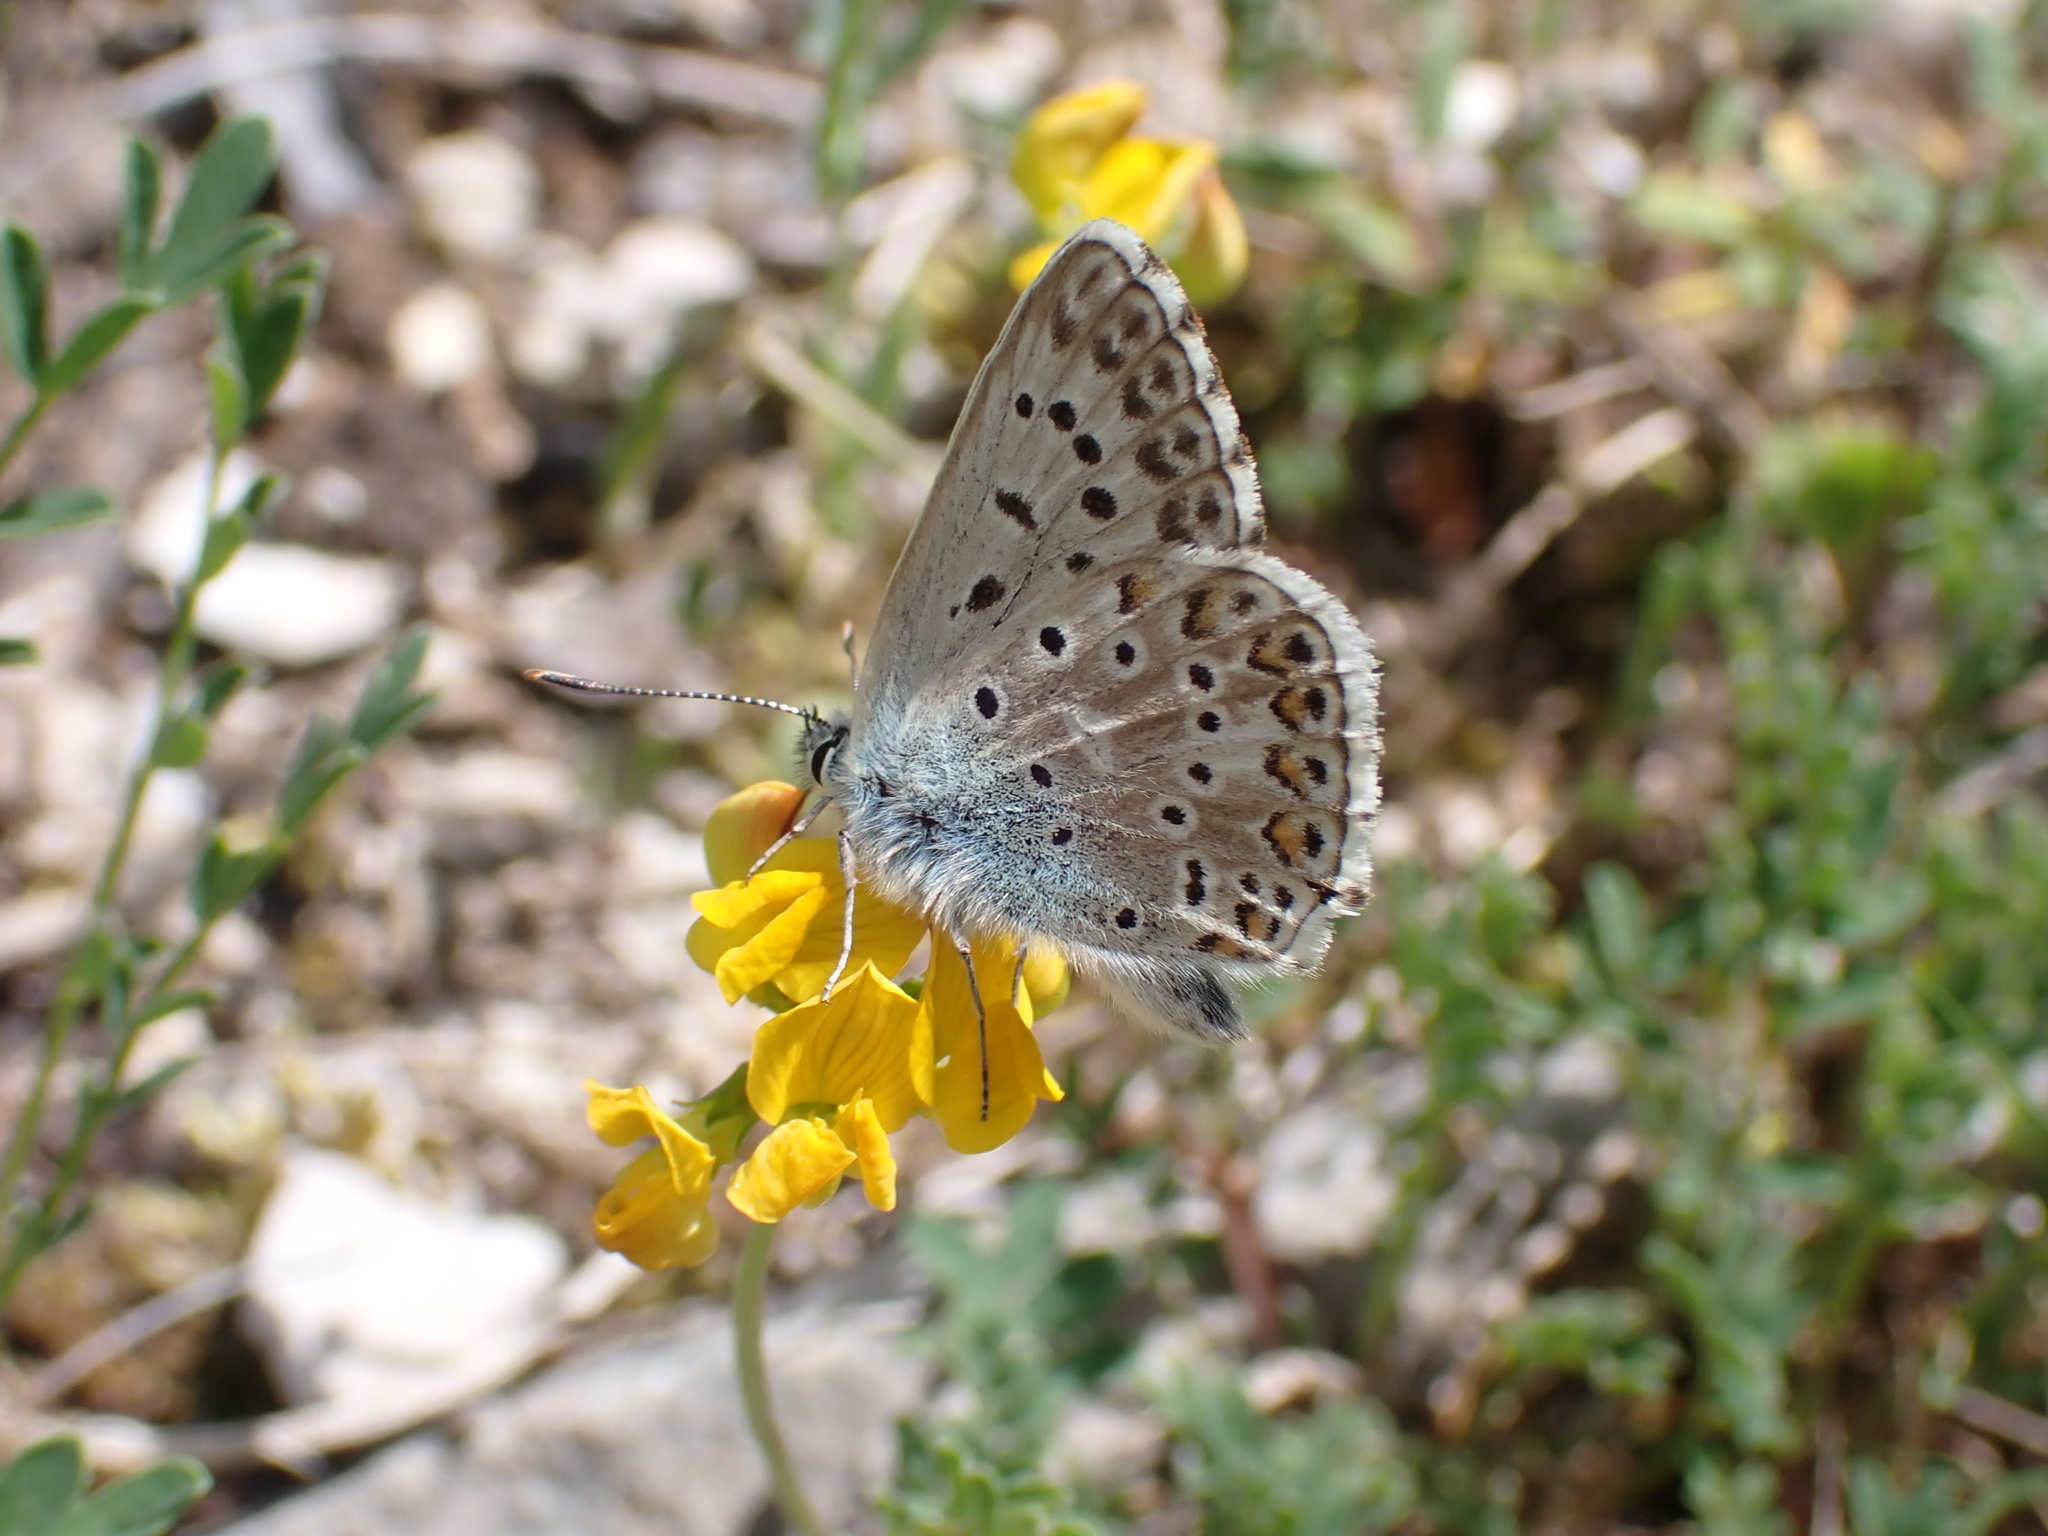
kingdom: Animalia
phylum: Arthropoda
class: Insecta
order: Lepidoptera
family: Lycaenidae
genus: Lysandra
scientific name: Lysandra hispana
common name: Provence chalkhill blue
